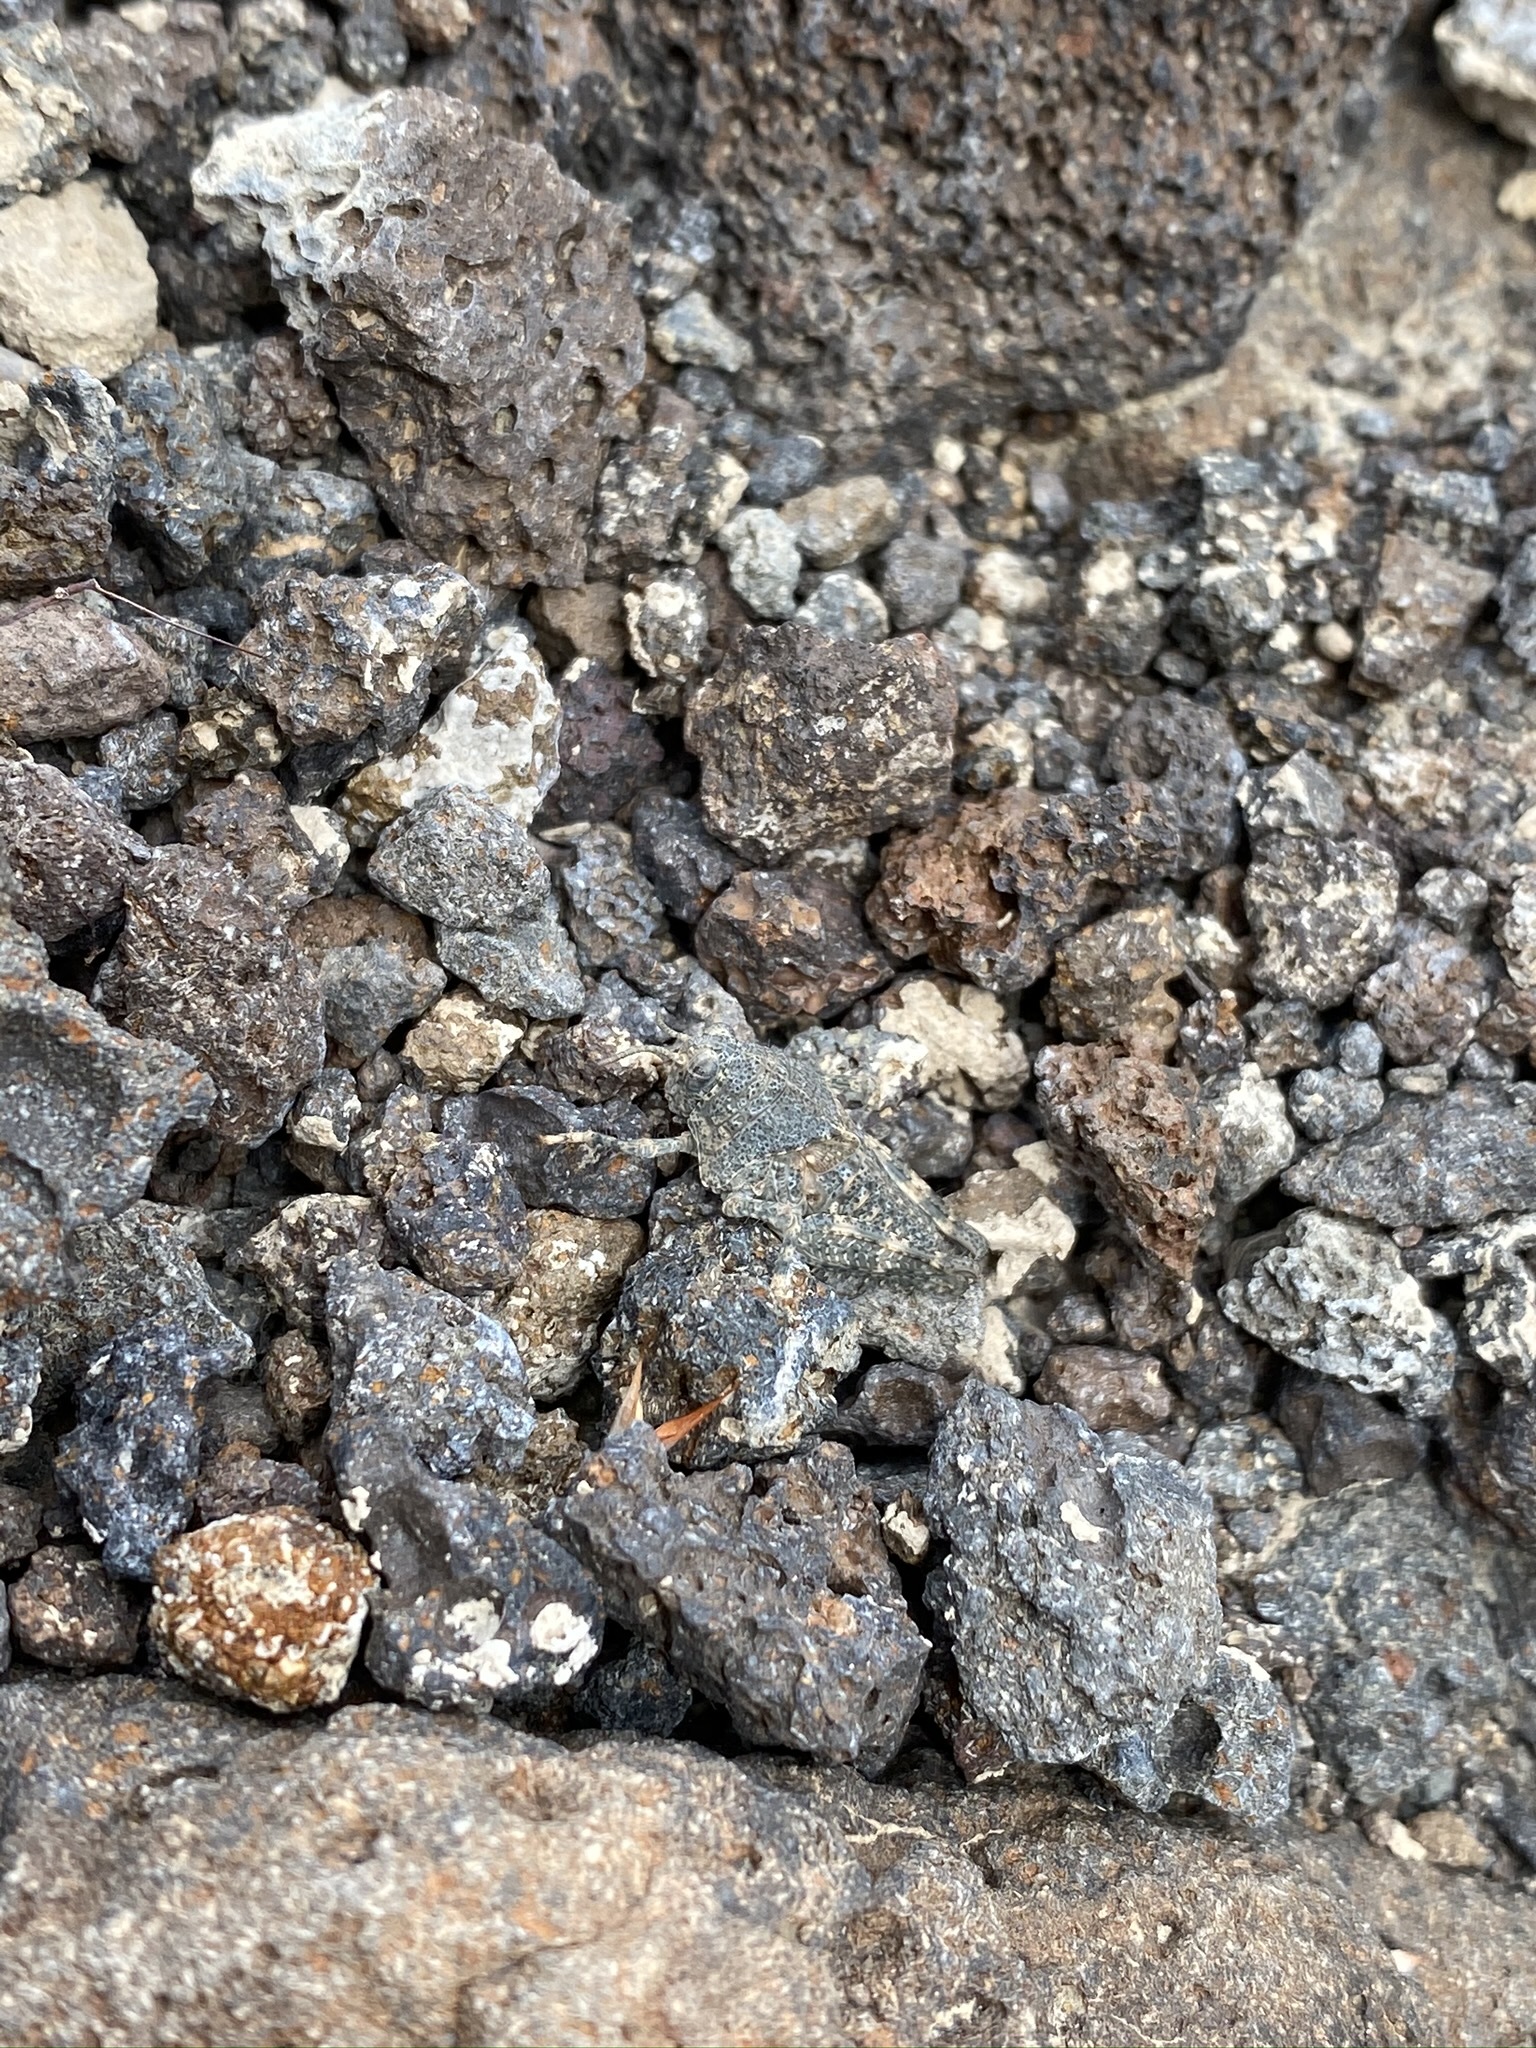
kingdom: Animalia
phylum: Arthropoda
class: Insecta
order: Orthoptera
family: Romaleidae
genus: Tytthotyle
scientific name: Tytthotyle maculata
